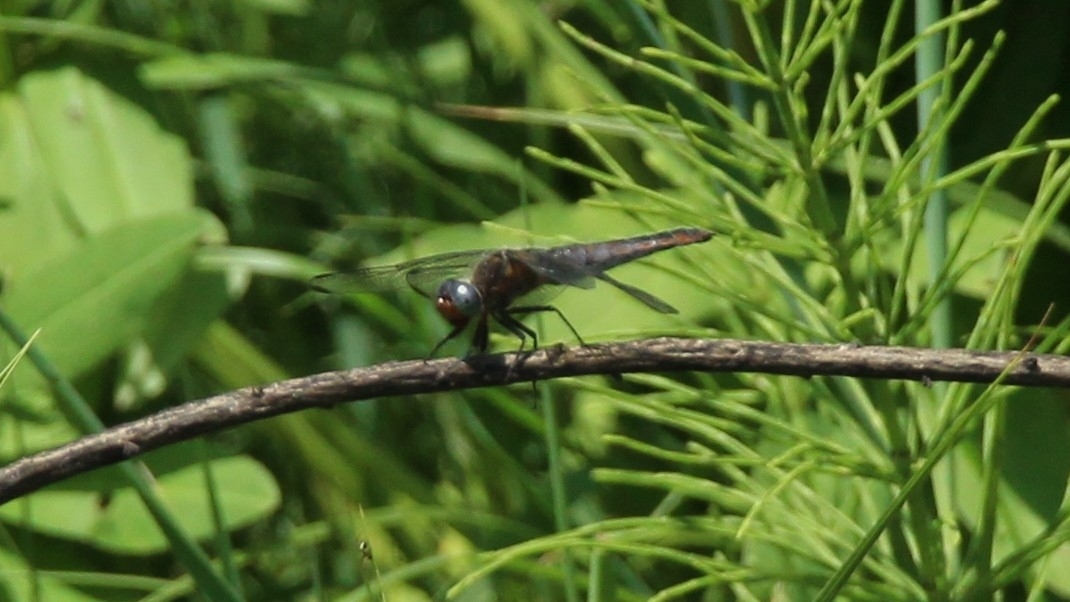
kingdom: Animalia
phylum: Arthropoda
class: Insecta
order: Odonata
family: Libellulidae
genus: Libellula
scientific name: Libellula fulva
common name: Blue chaser
